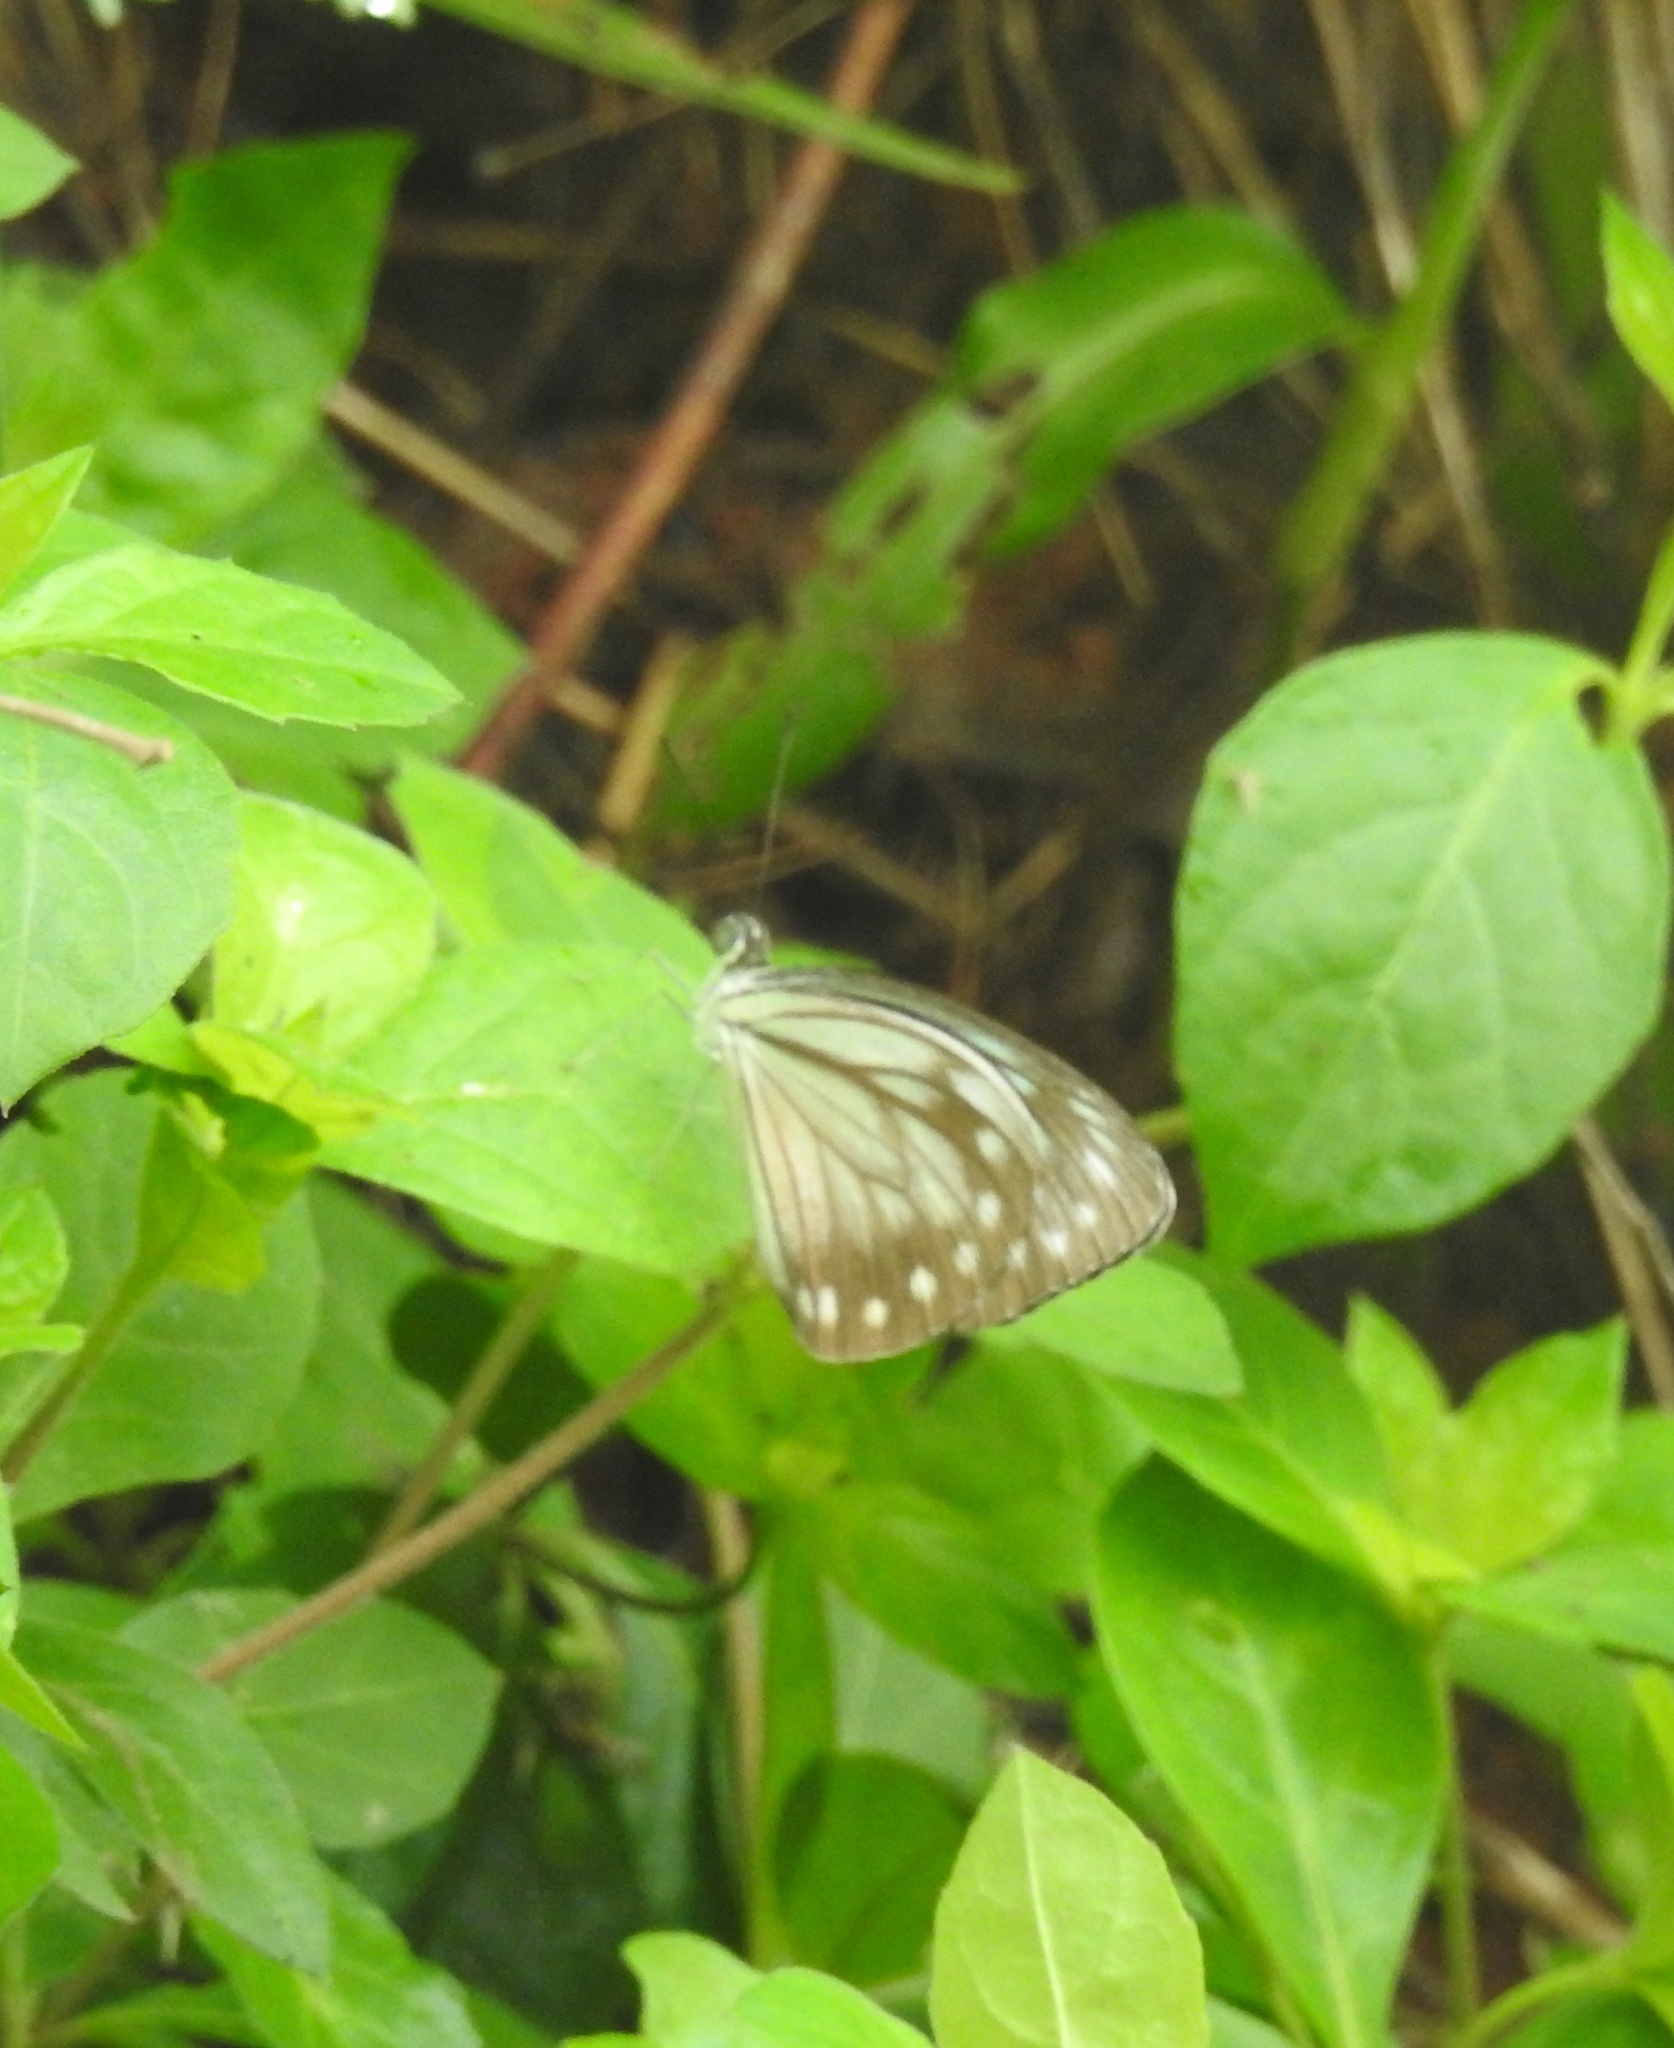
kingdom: Animalia
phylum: Arthropoda
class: Insecta
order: Lepidoptera
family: Pieridae
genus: Pareronia
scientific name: Pareronia hippia
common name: Indian wanderer
